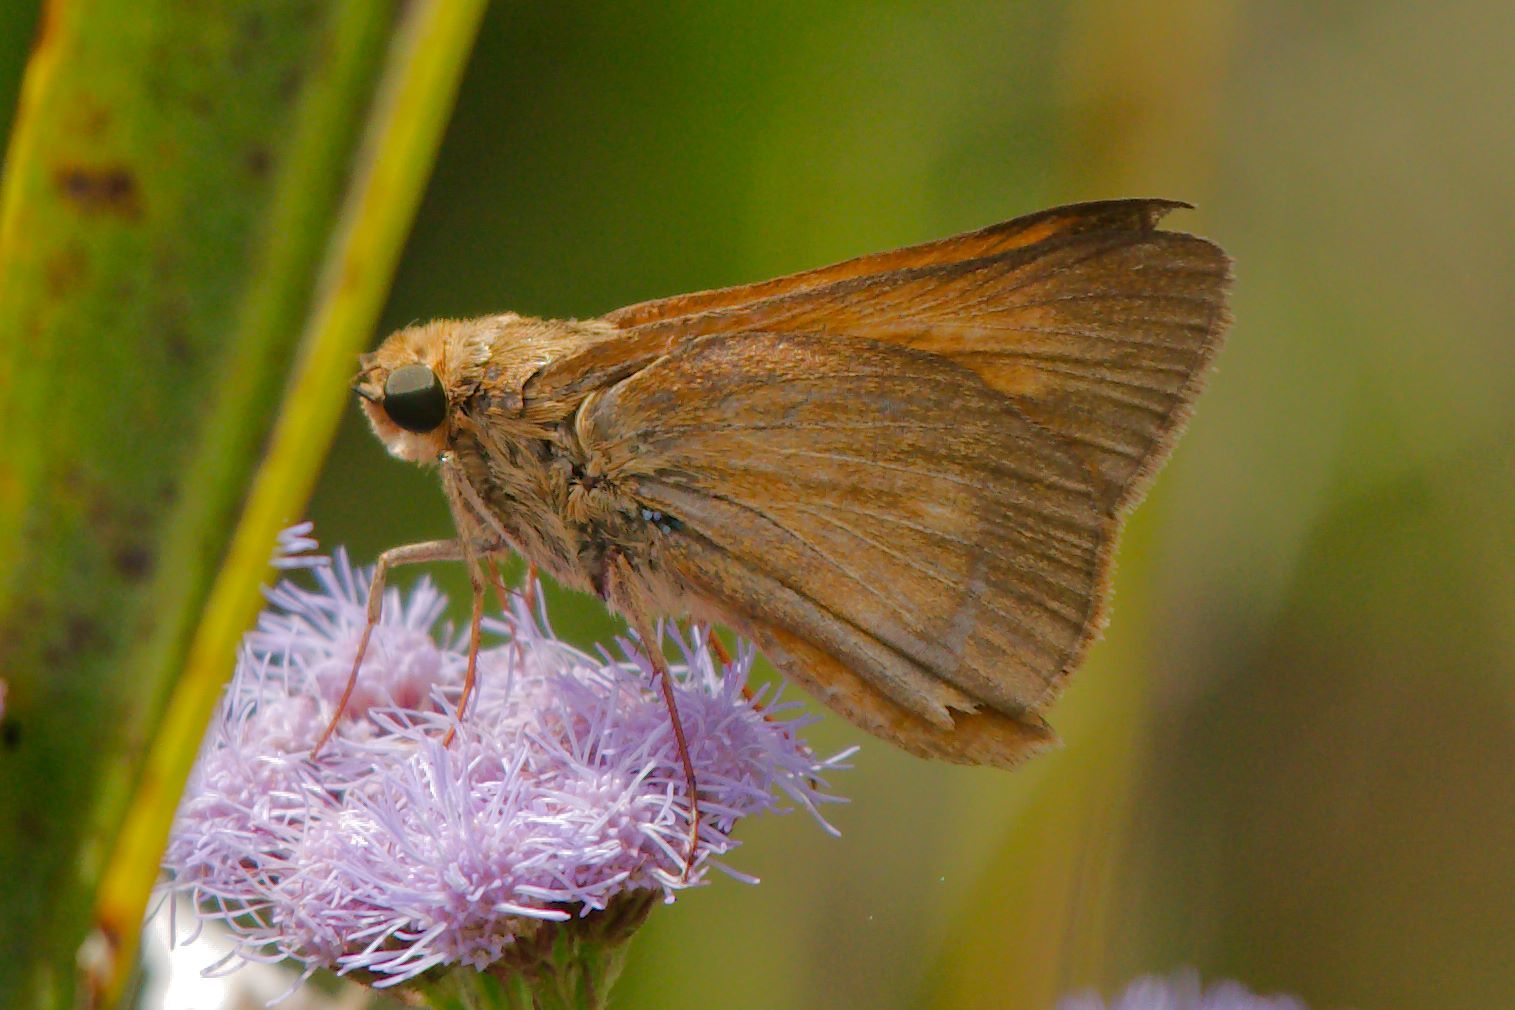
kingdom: Animalia
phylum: Arthropoda
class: Insecta
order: Lepidoptera
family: Hesperiidae
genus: Euphyes
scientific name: Euphyes pilatka
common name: Palatka skipper
